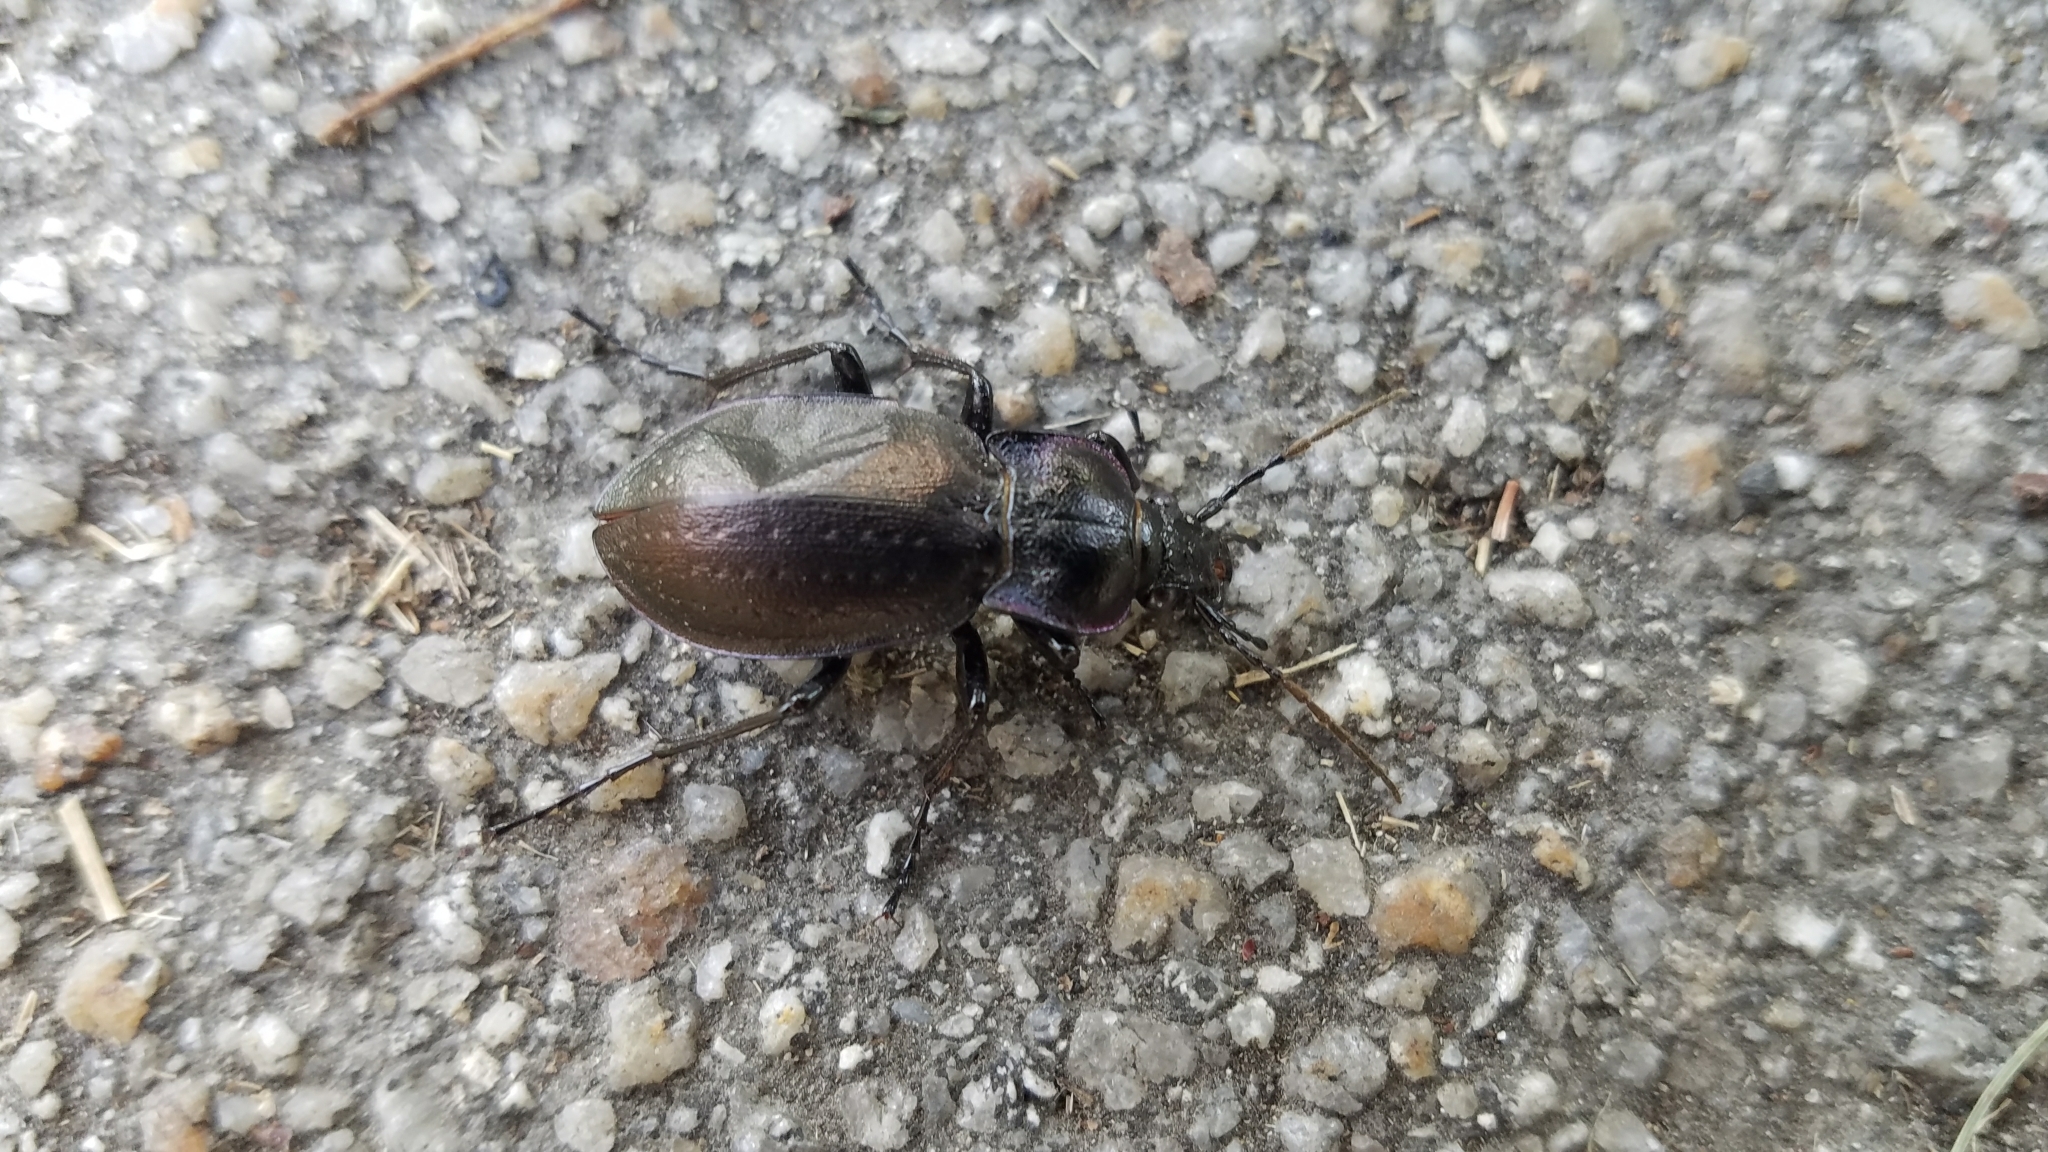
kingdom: Animalia
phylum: Arthropoda
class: Insecta
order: Coleoptera
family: Carabidae
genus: Carabus
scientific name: Carabus nemoralis
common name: European ground beetle
